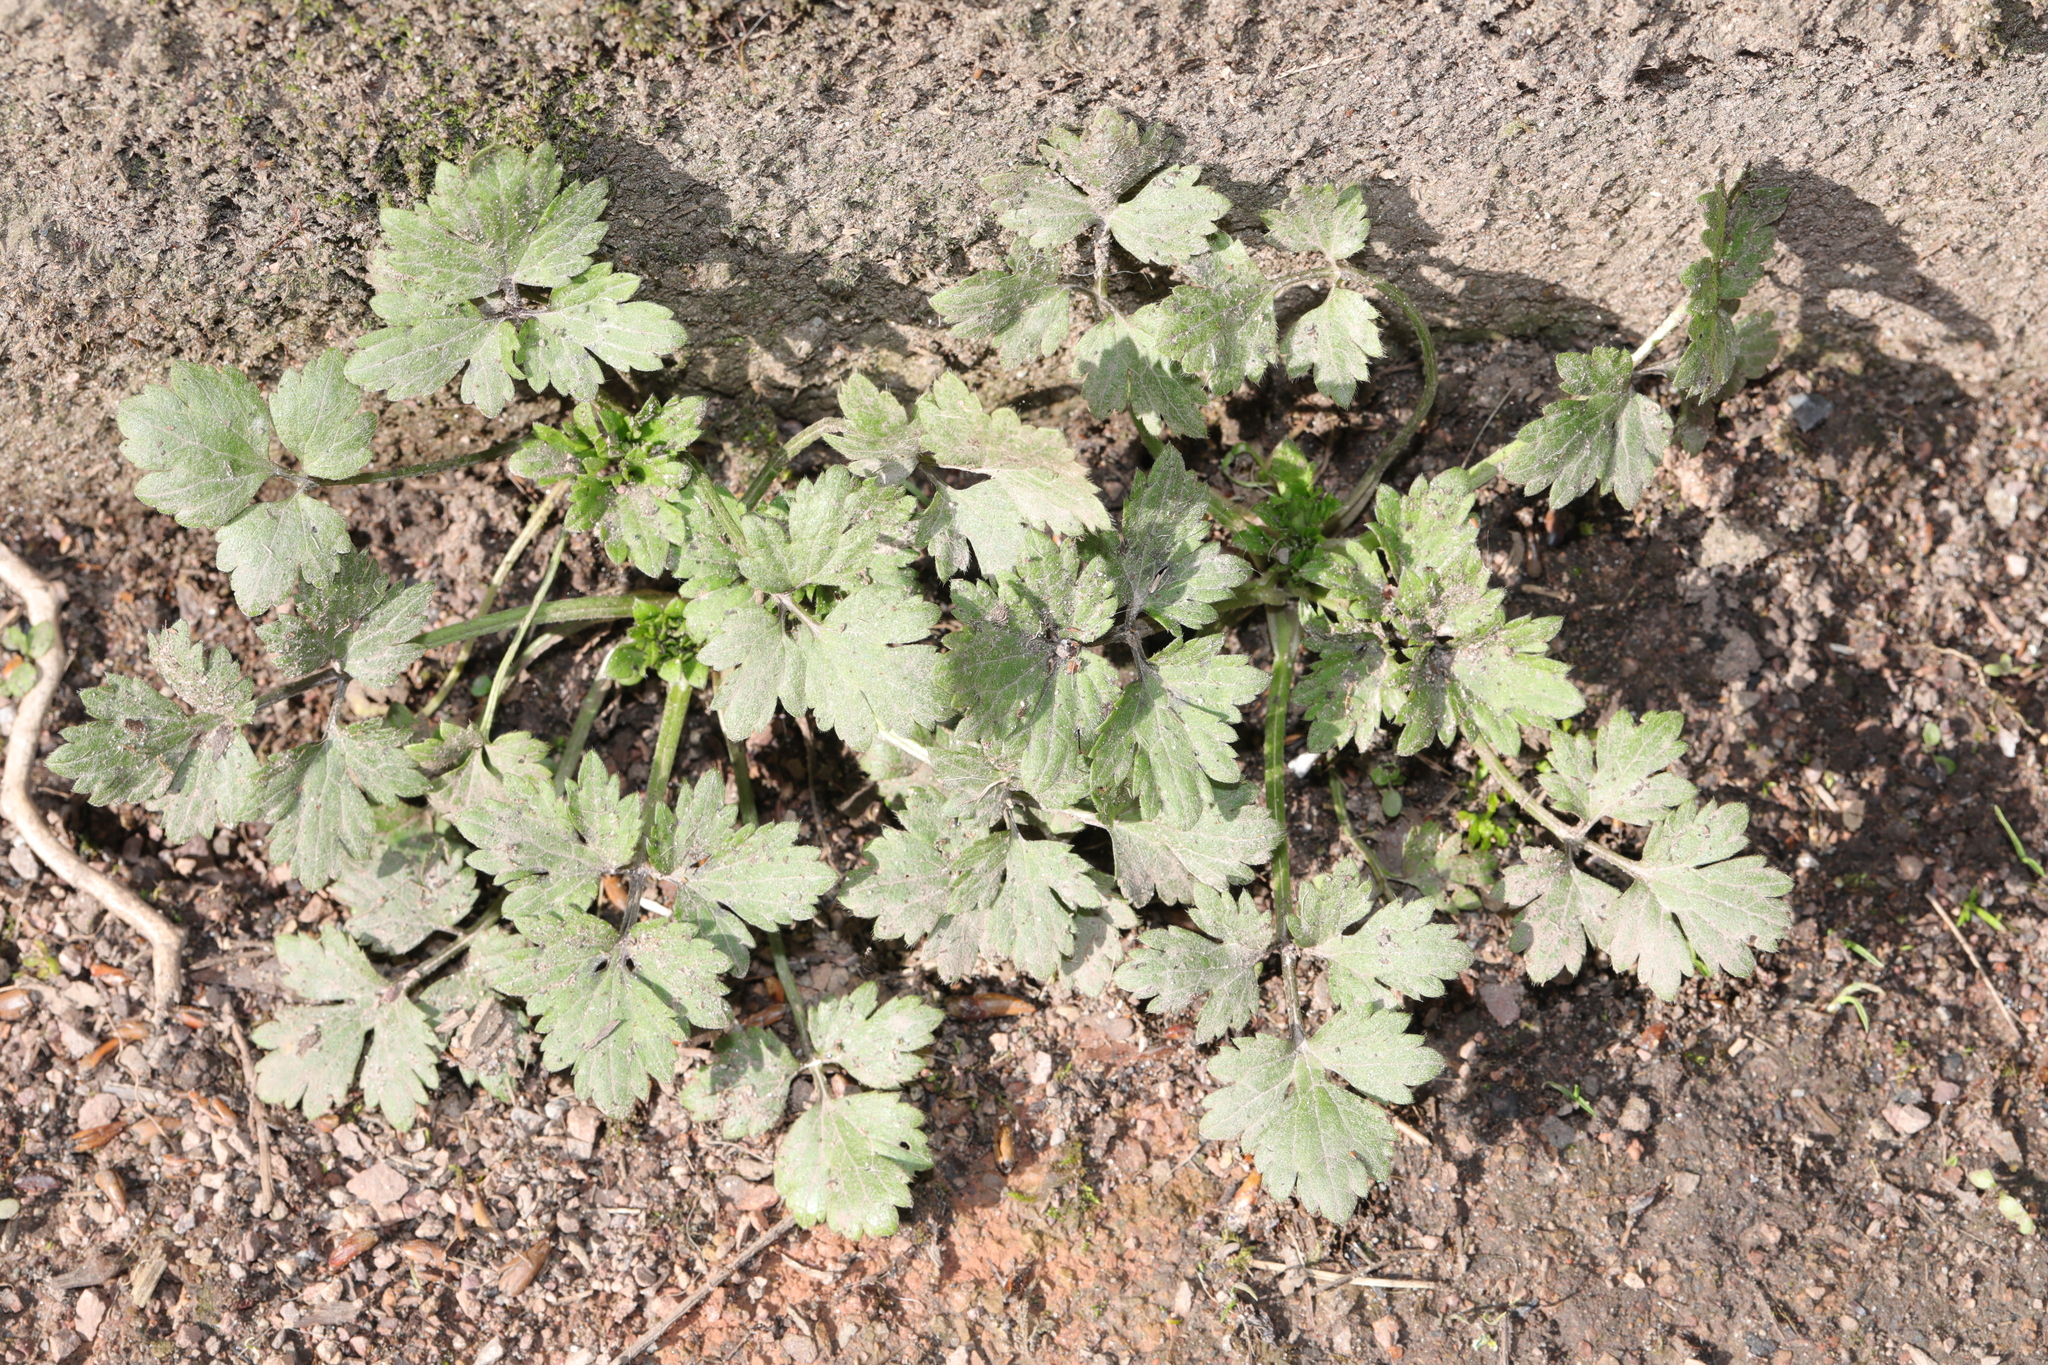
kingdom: Plantae
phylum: Tracheophyta
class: Magnoliopsida
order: Ranunculales
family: Ranunculaceae
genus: Ranunculus
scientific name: Ranunculus repens
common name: Creeping buttercup
